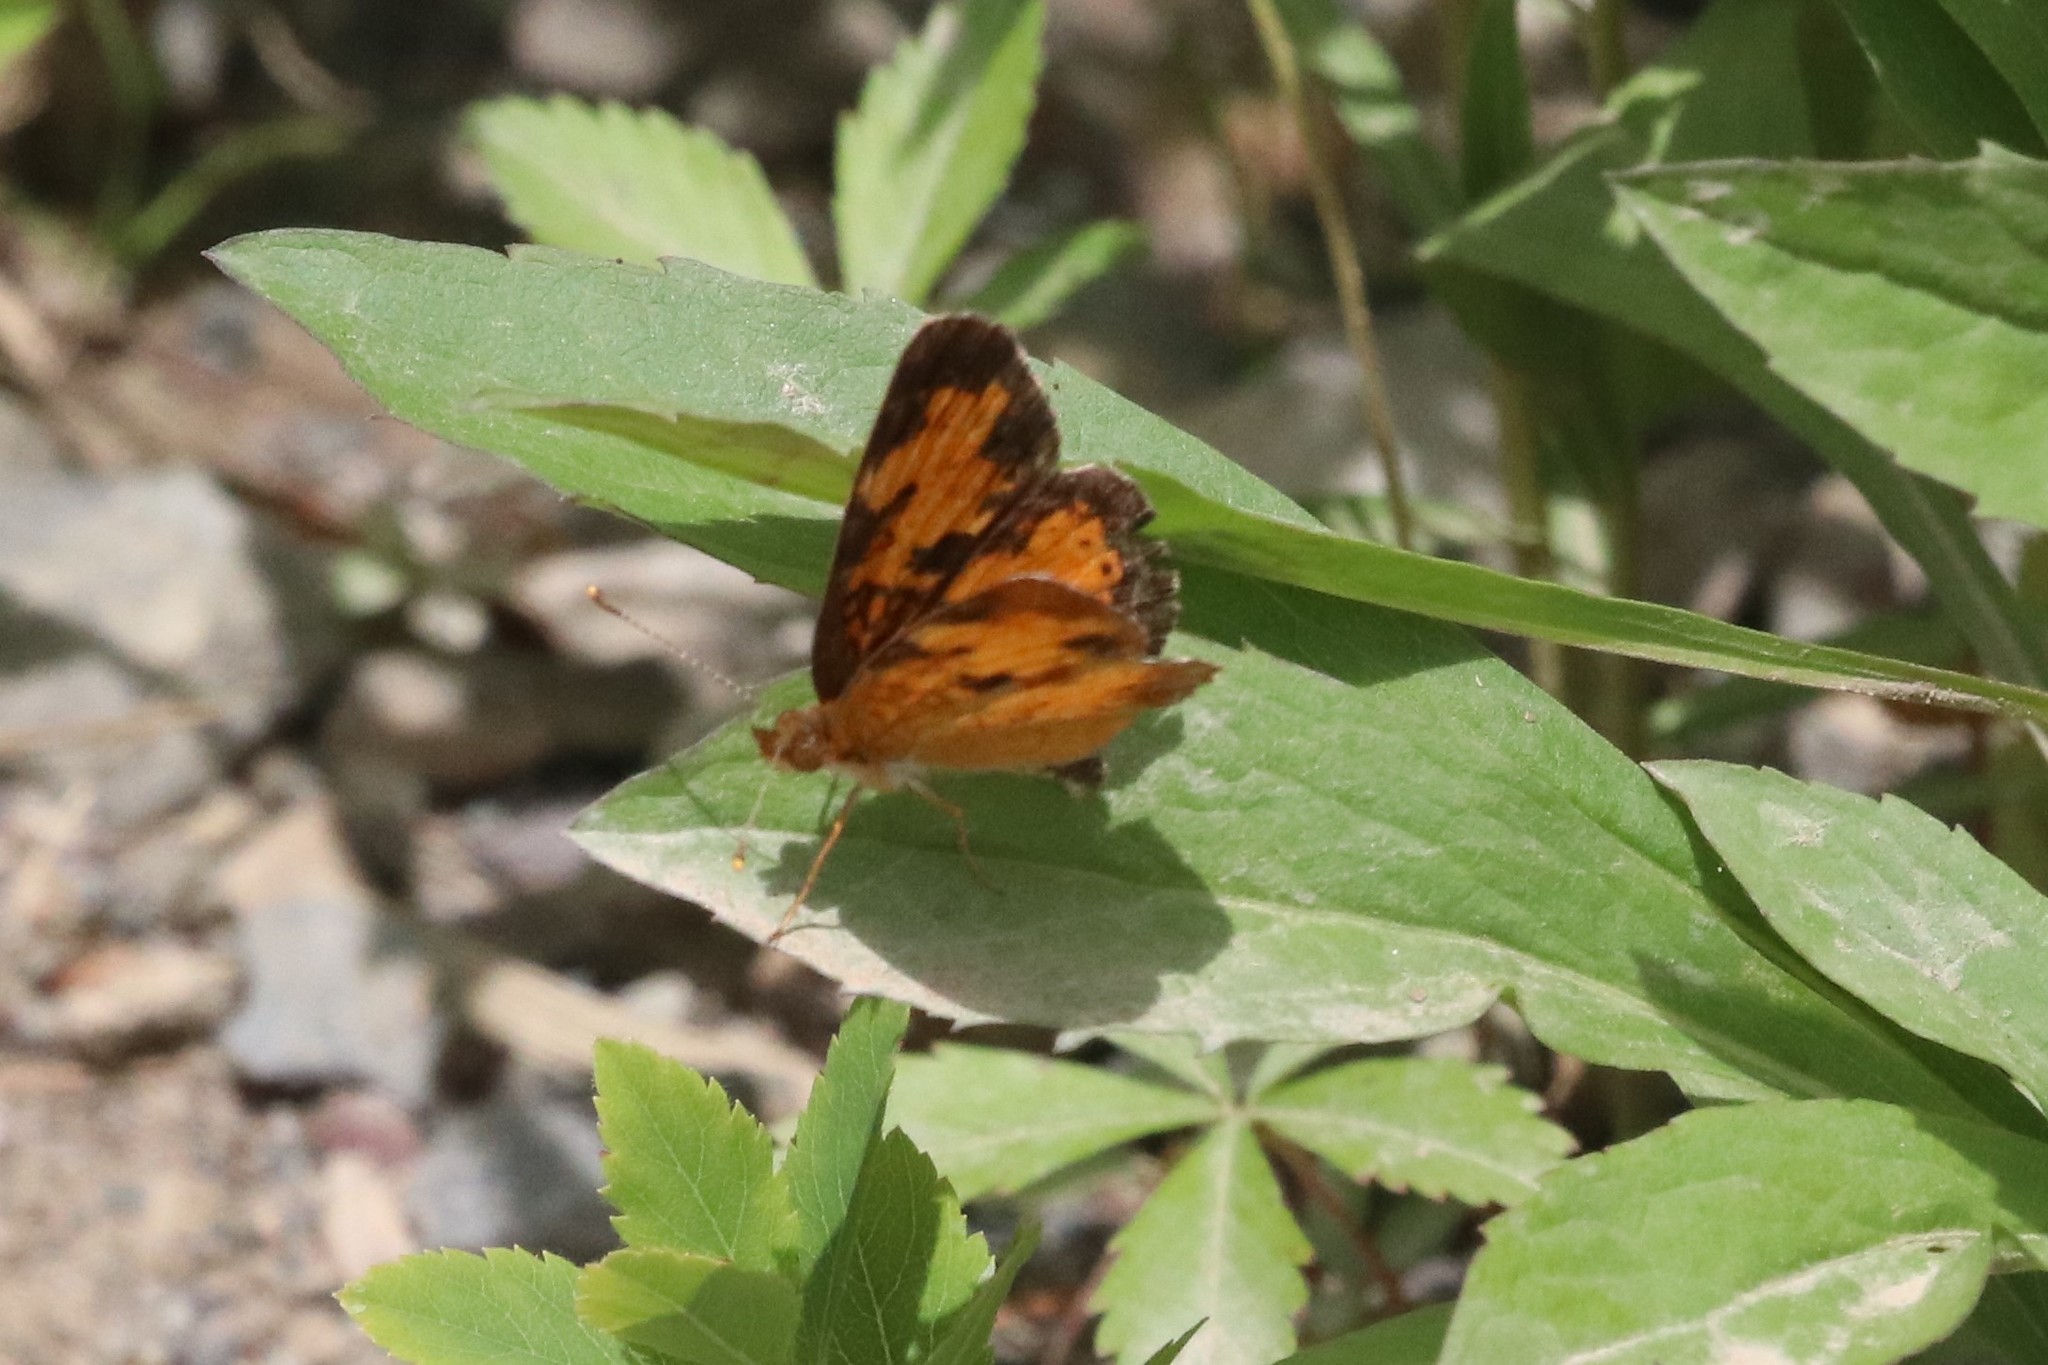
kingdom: Animalia
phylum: Arthropoda
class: Insecta
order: Lepidoptera
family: Nymphalidae
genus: Phyciodes
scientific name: Phyciodes tharos
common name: Pearl crescent
